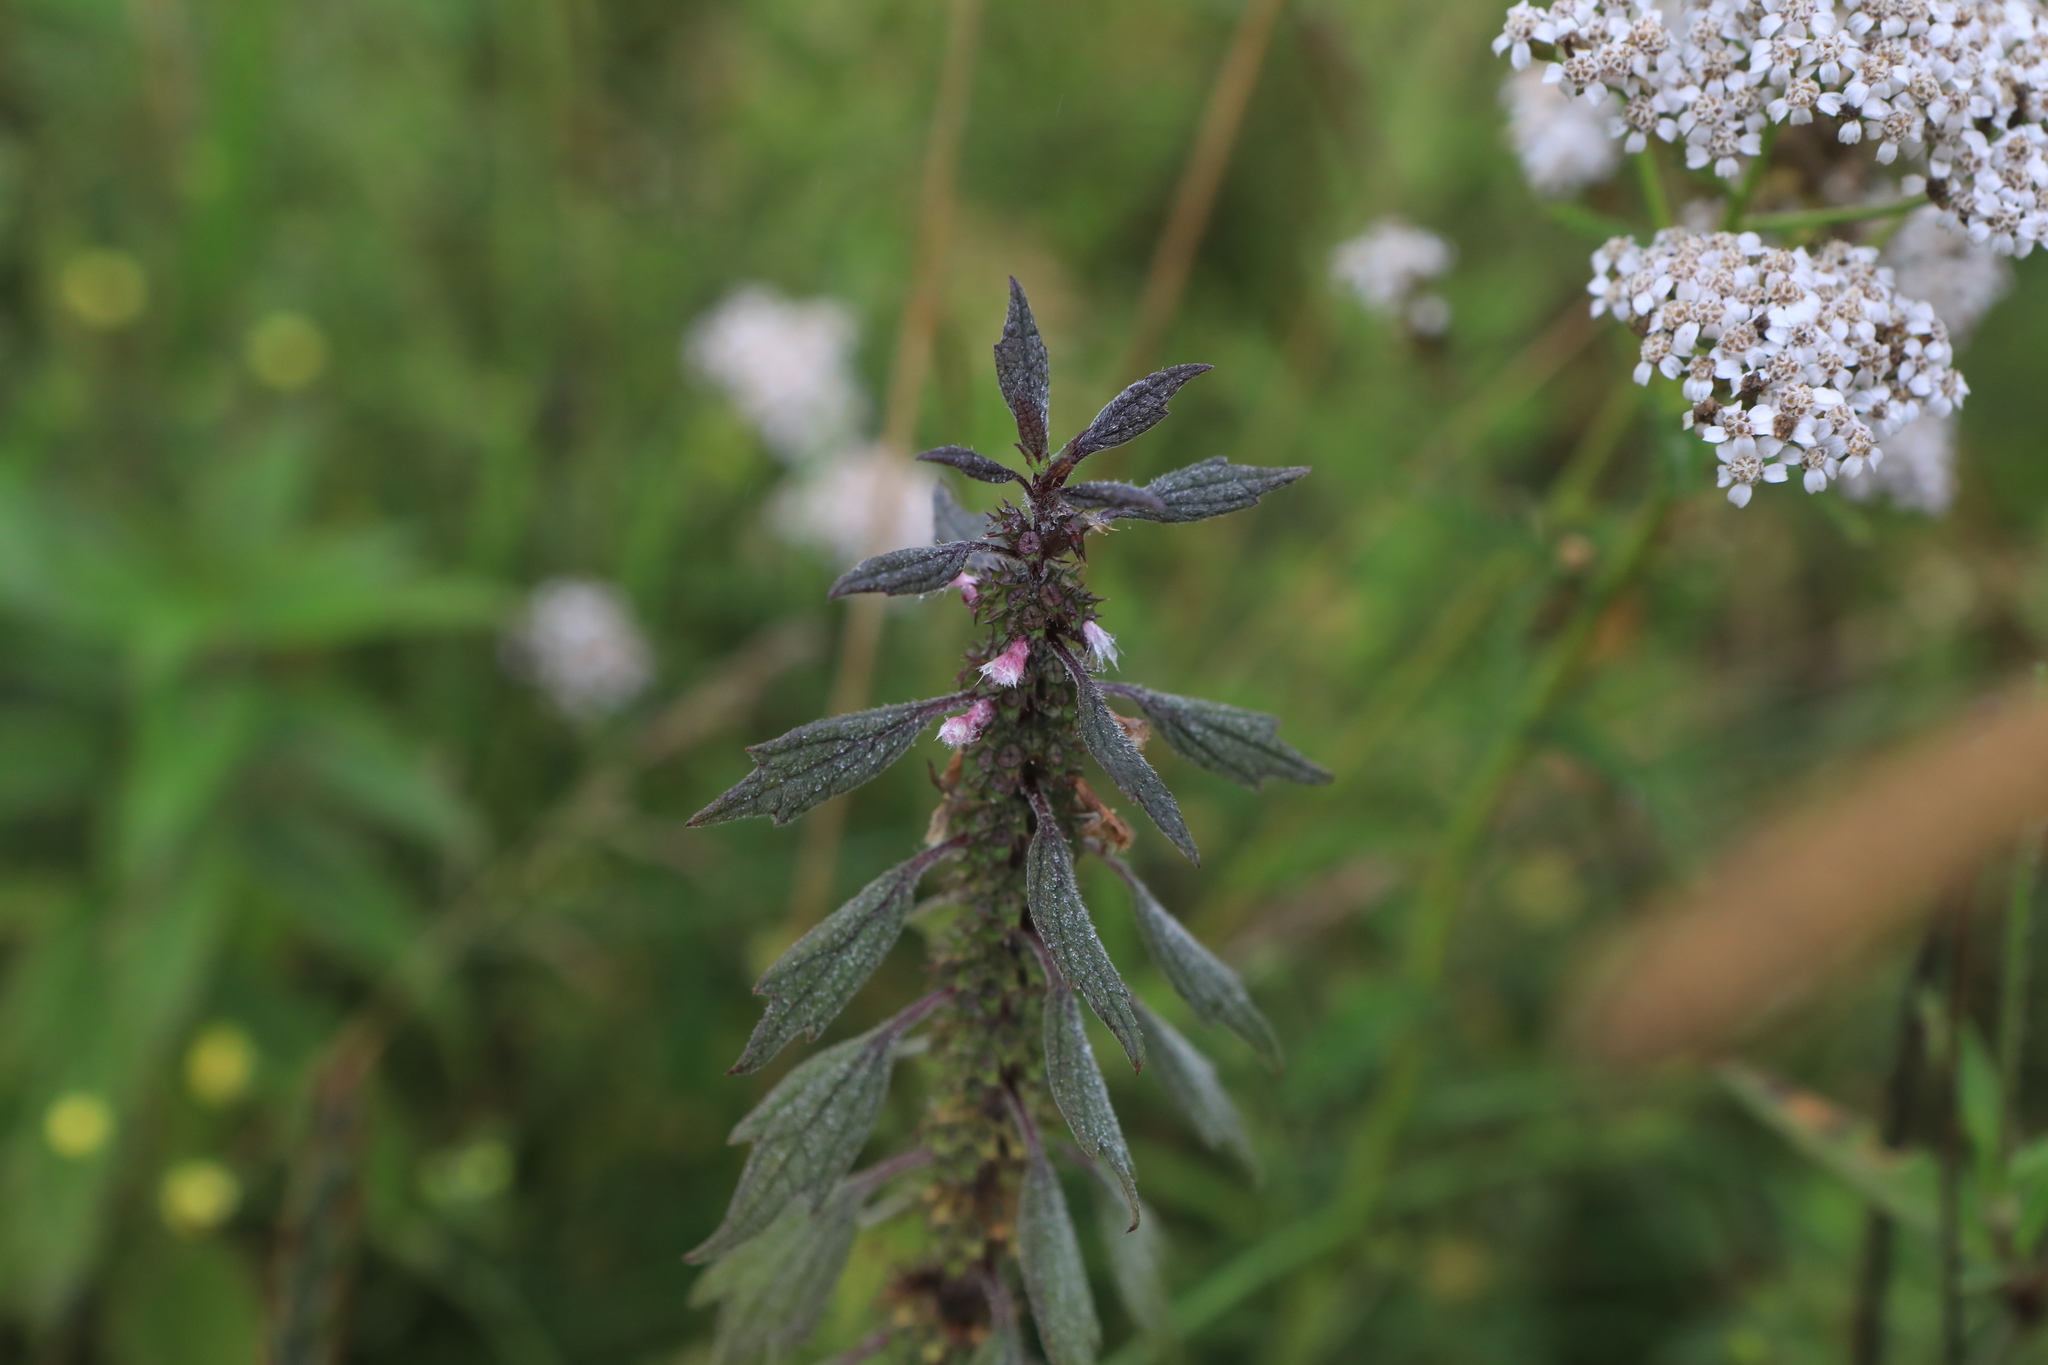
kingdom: Plantae
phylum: Tracheophyta
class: Magnoliopsida
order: Lamiales
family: Lamiaceae
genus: Leonurus
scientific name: Leonurus quinquelobatus
